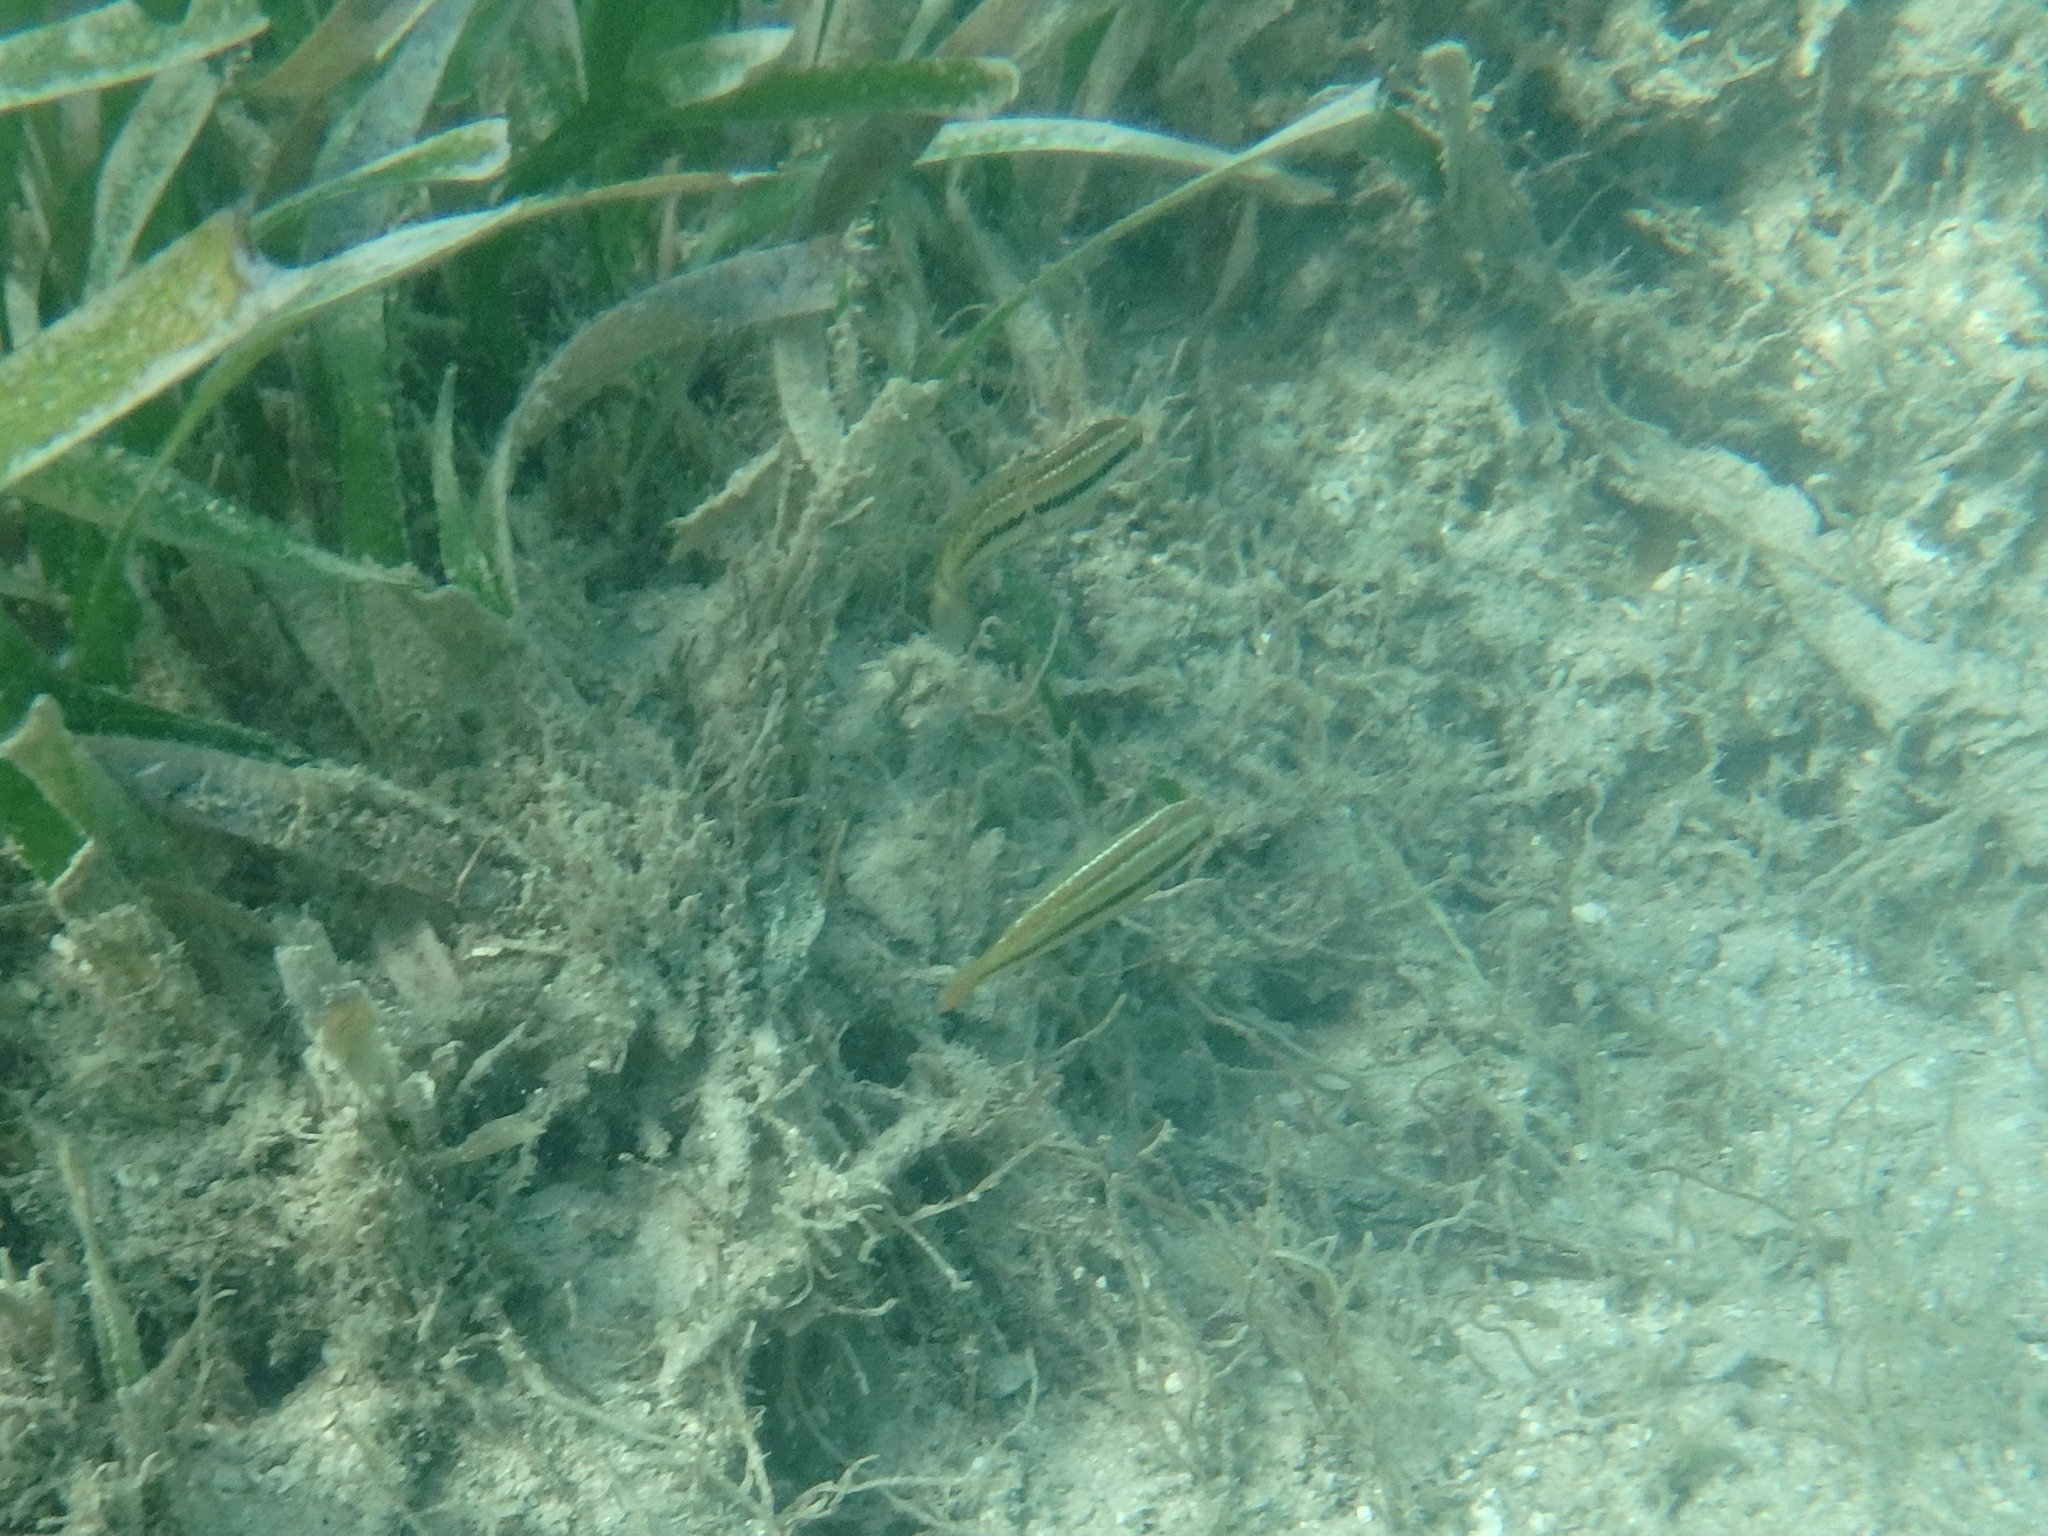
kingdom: Animalia
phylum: Chordata
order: Perciformes
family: Labridae
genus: Halichoeres
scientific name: Halichoeres bivittatus
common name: Slippery dick
